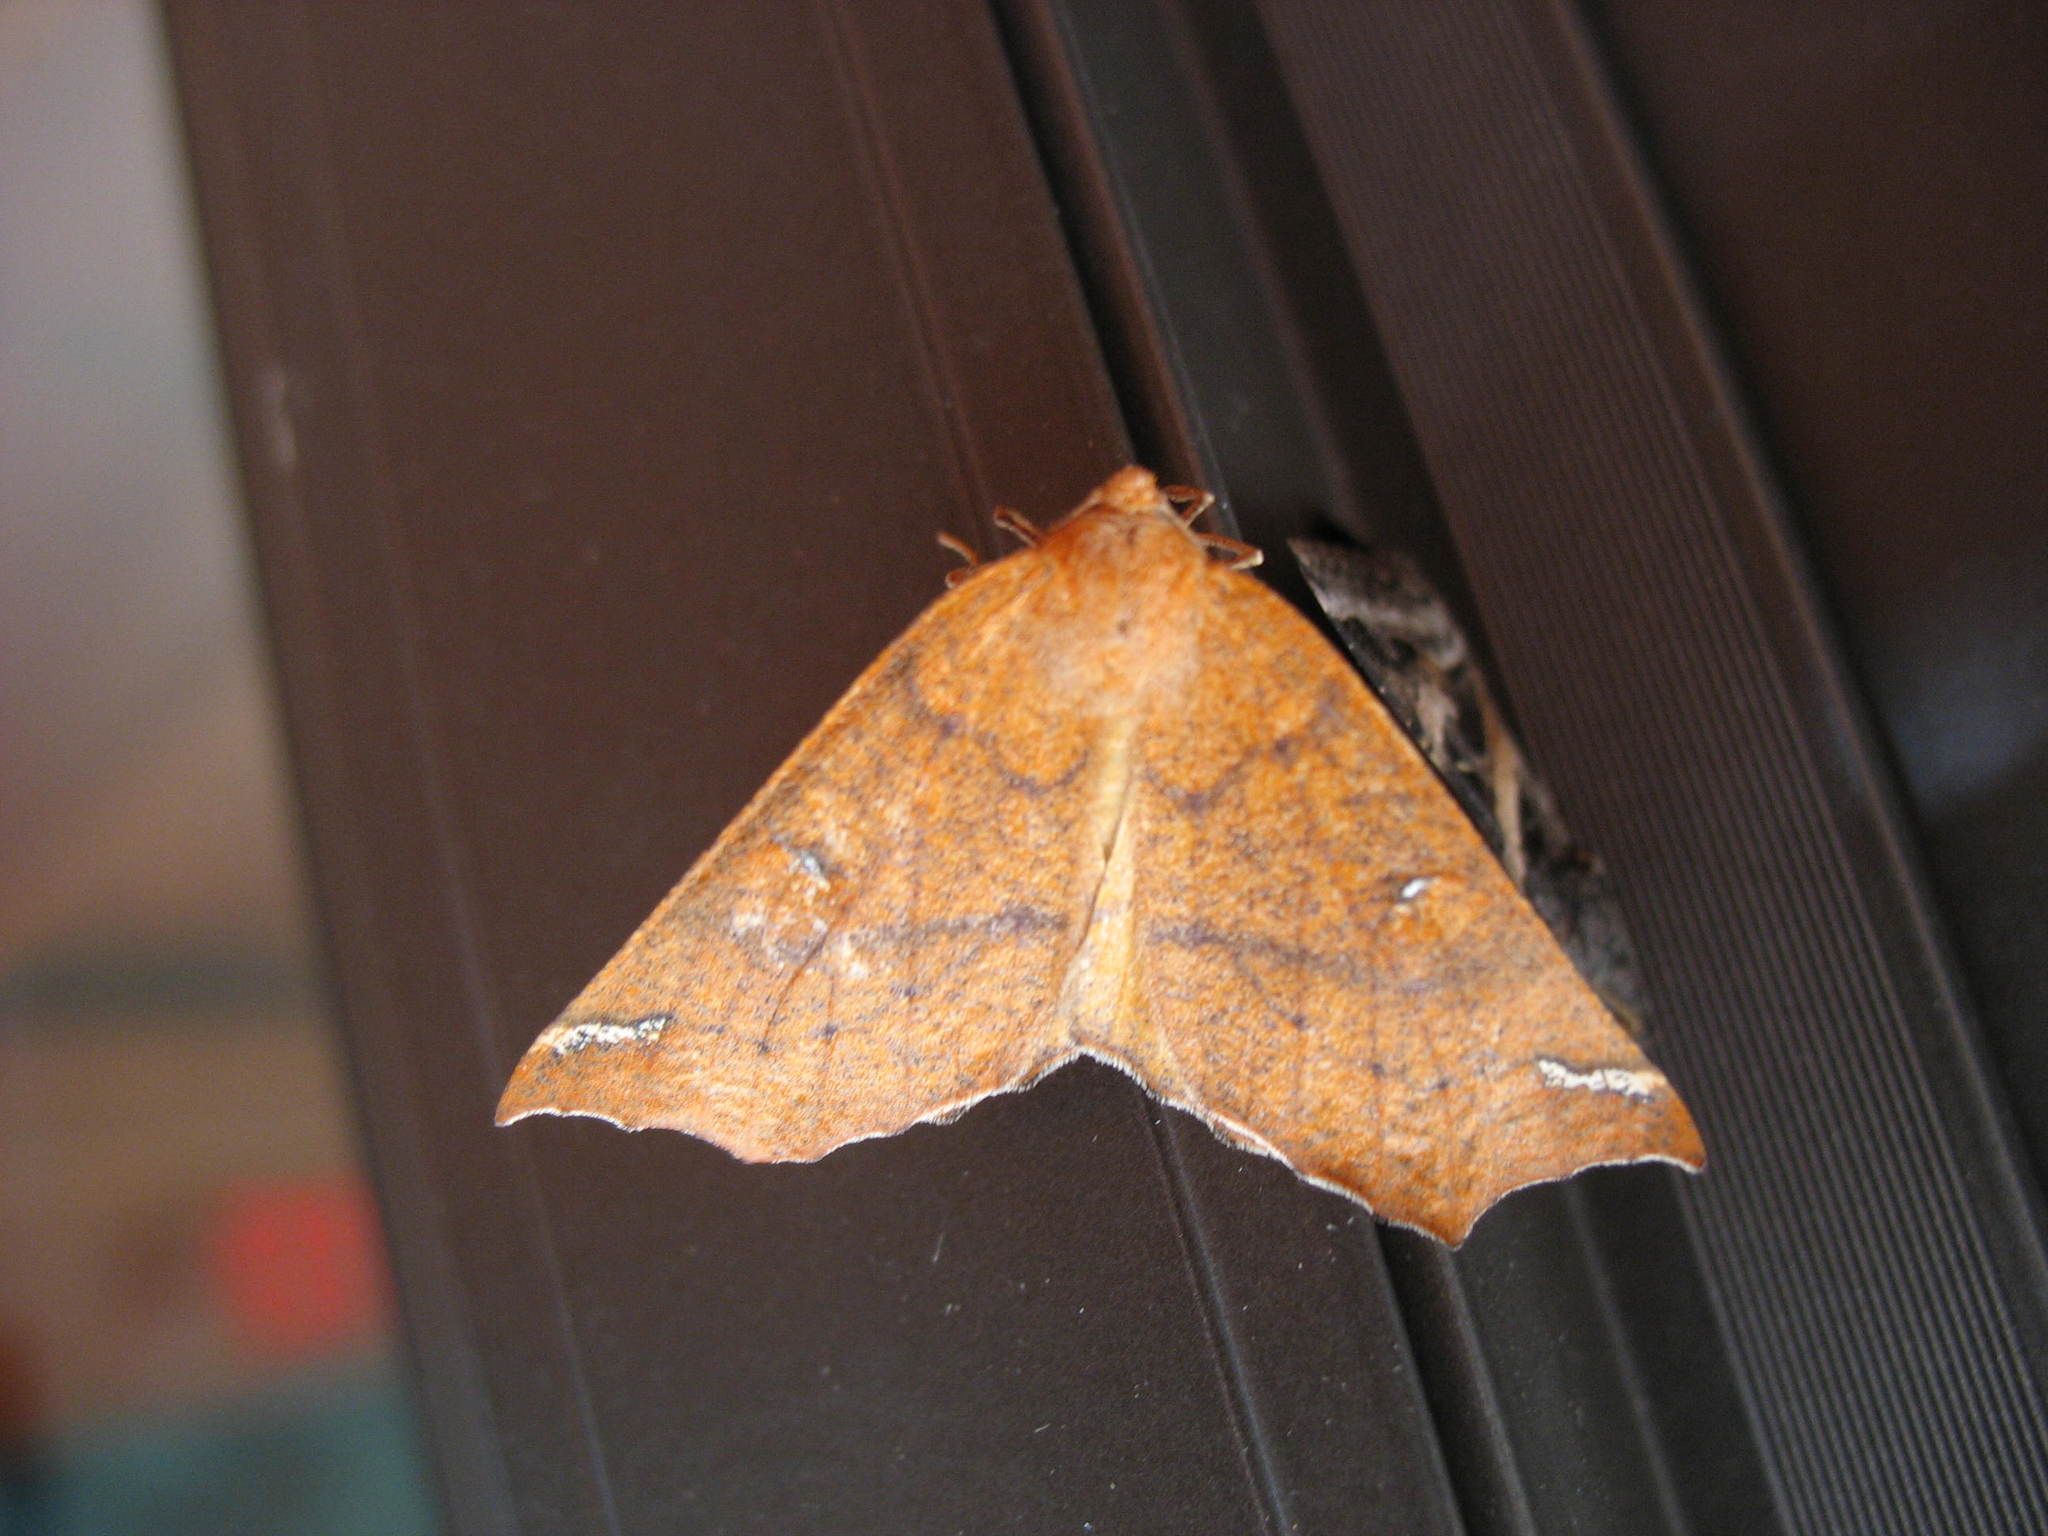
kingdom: Animalia
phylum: Arthropoda
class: Insecta
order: Lepidoptera
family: Geometridae
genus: Caripeta
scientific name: Caripeta macularia
